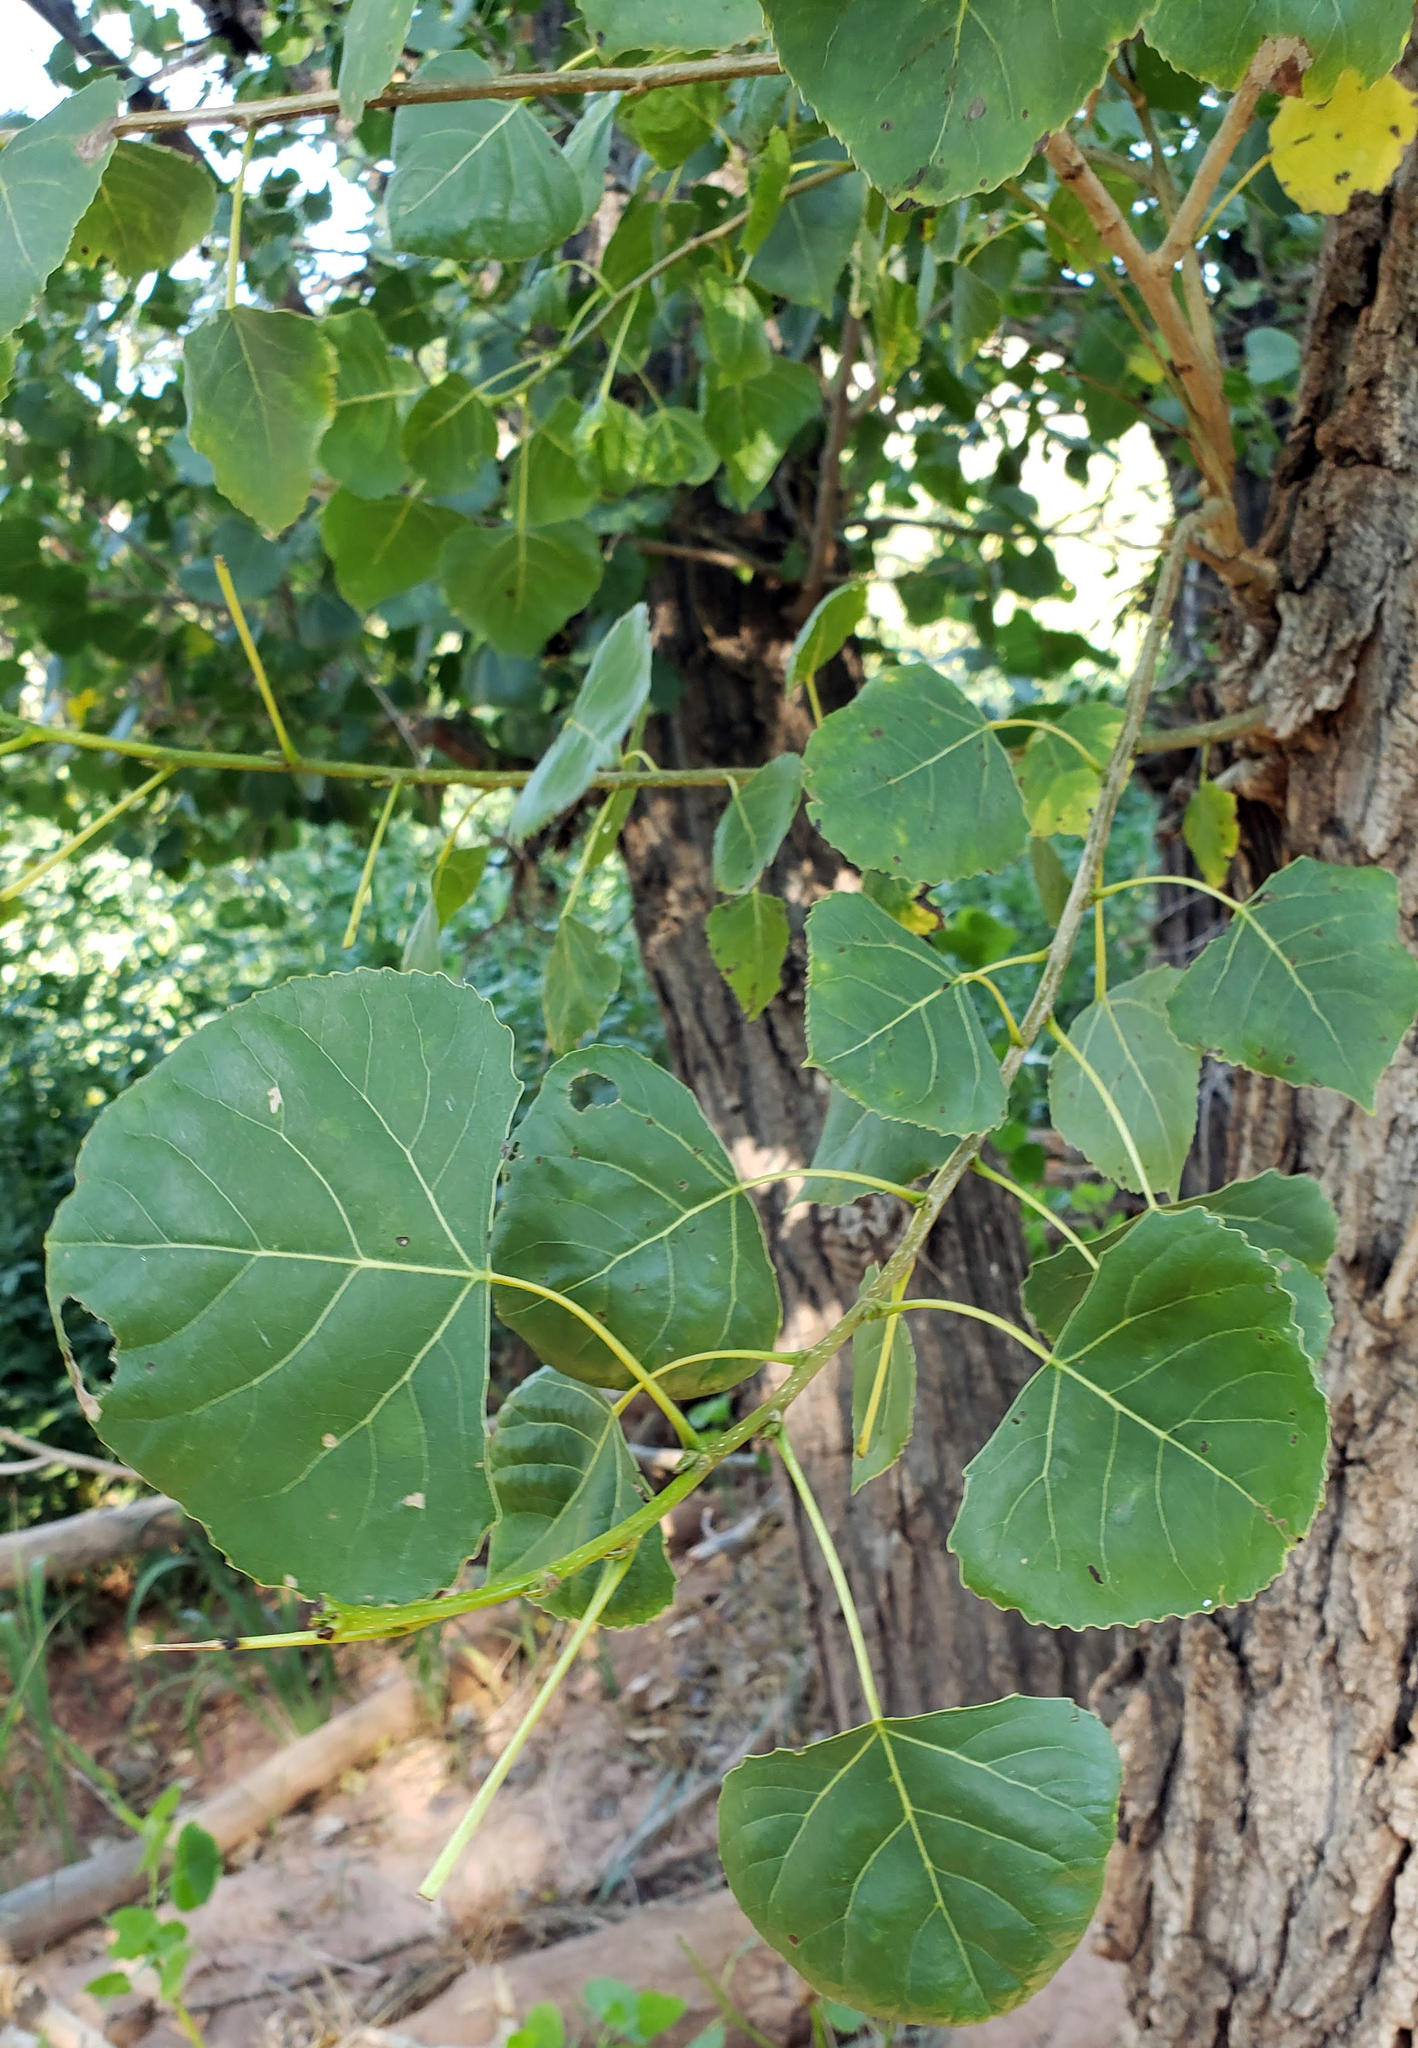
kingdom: Plantae
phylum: Tracheophyta
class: Magnoliopsida
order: Malpighiales
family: Salicaceae
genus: Populus
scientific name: Populus deltoides
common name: Eastern cottonwood
